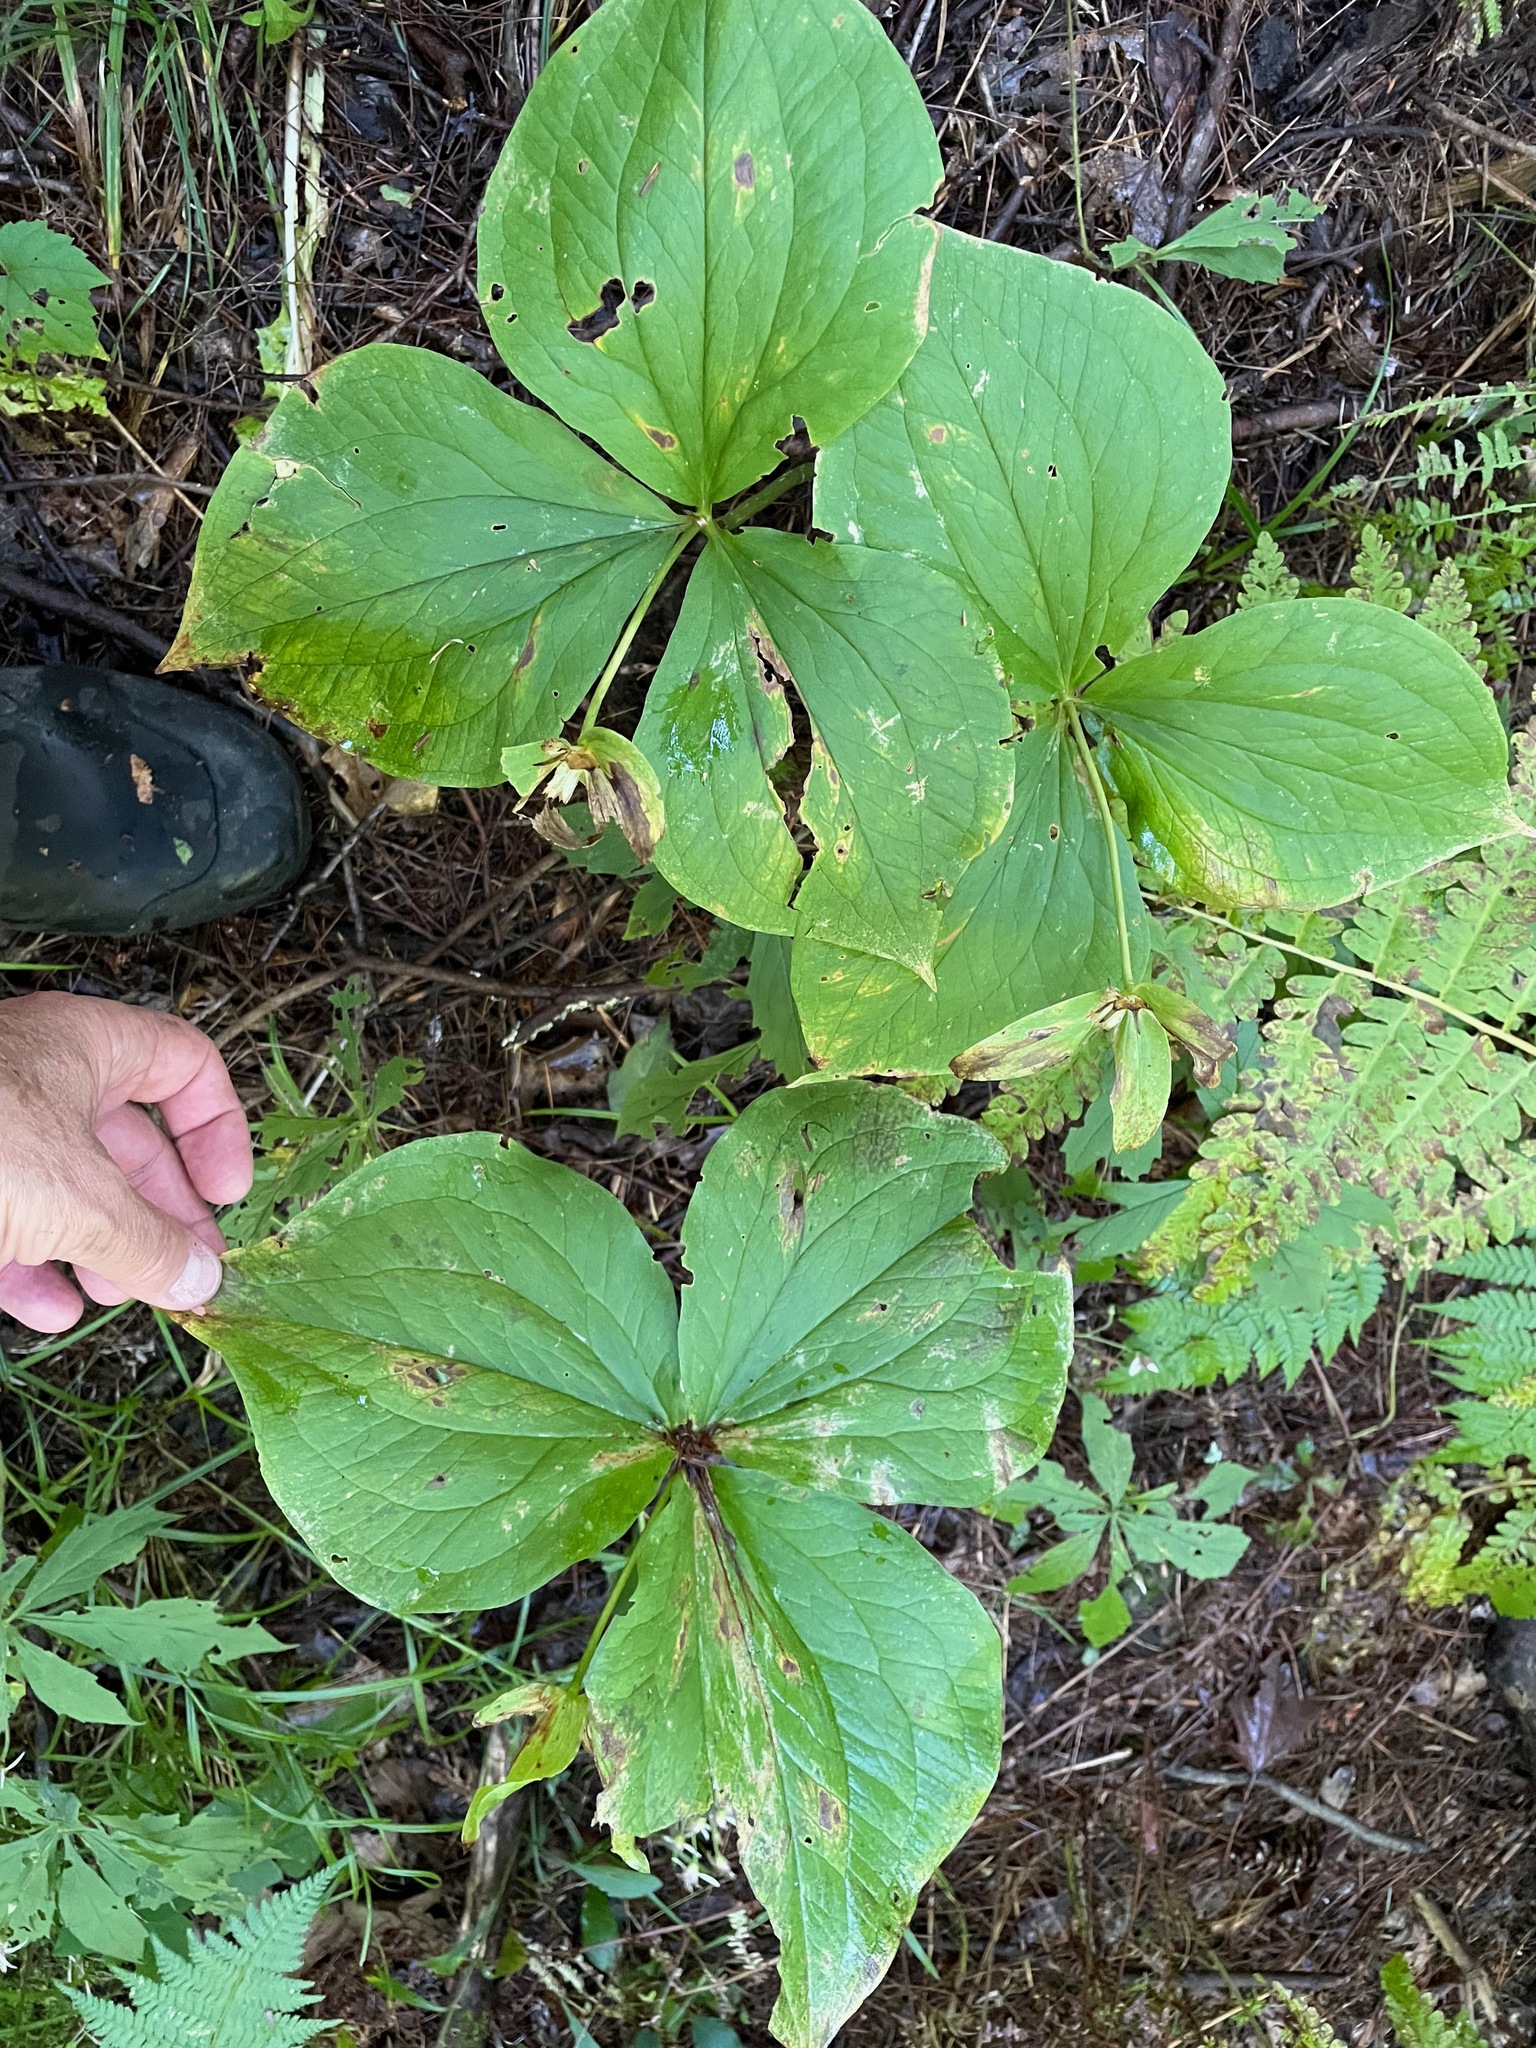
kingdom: Plantae
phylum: Tracheophyta
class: Liliopsida
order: Liliales
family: Melanthiaceae
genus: Trillium
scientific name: Trillium grandiflorum
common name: Great white trillium
